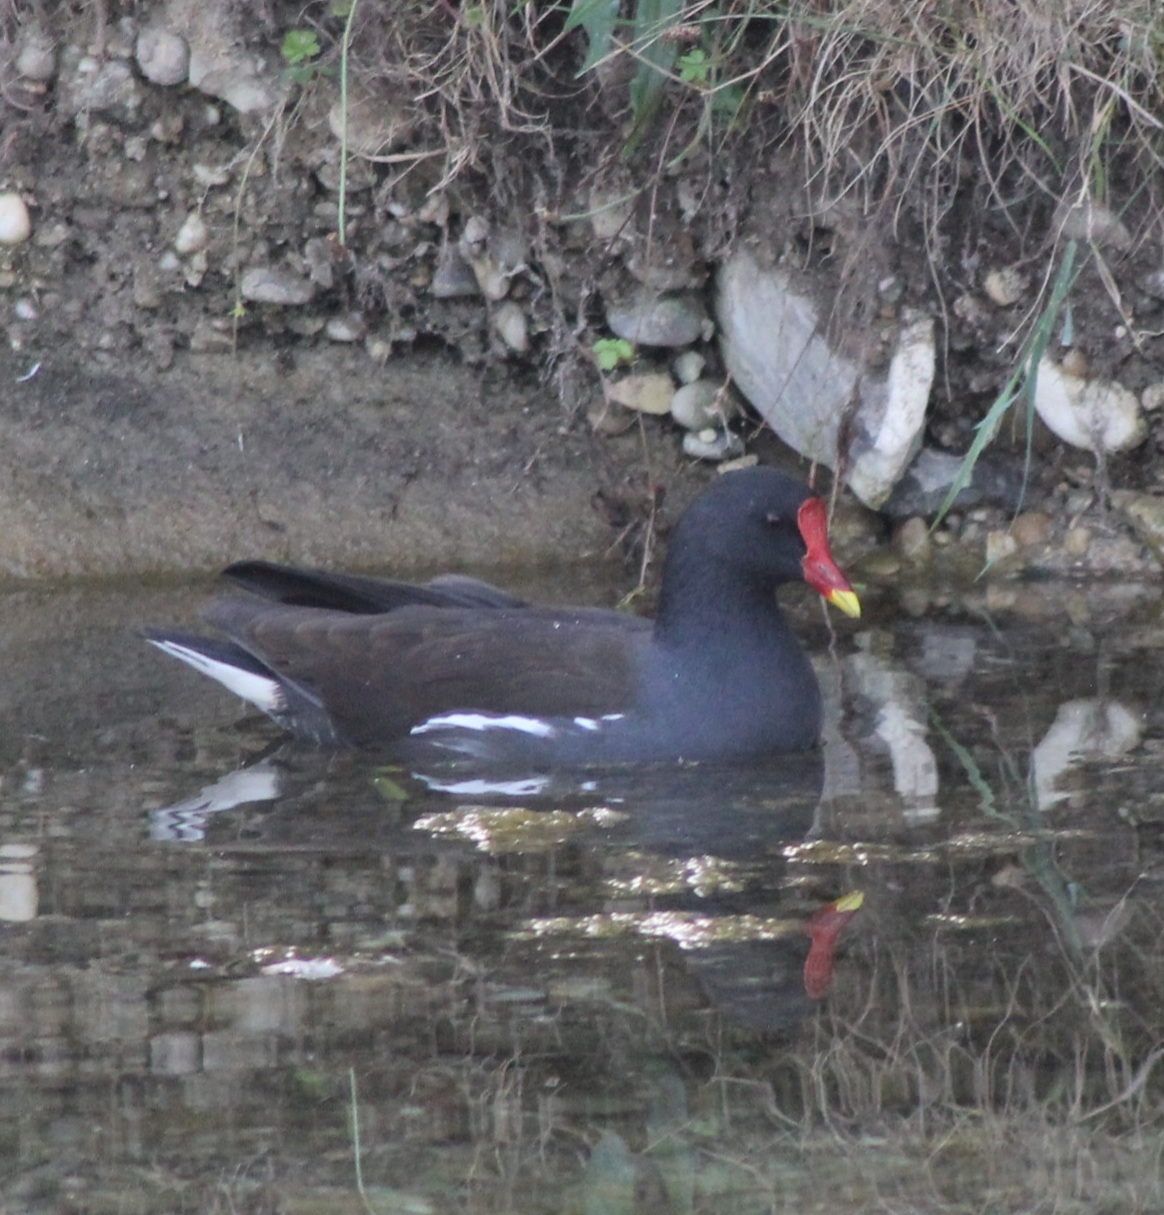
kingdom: Animalia
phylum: Chordata
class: Aves
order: Gruiformes
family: Rallidae
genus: Gallinula
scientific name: Gallinula chloropus
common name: Common moorhen
